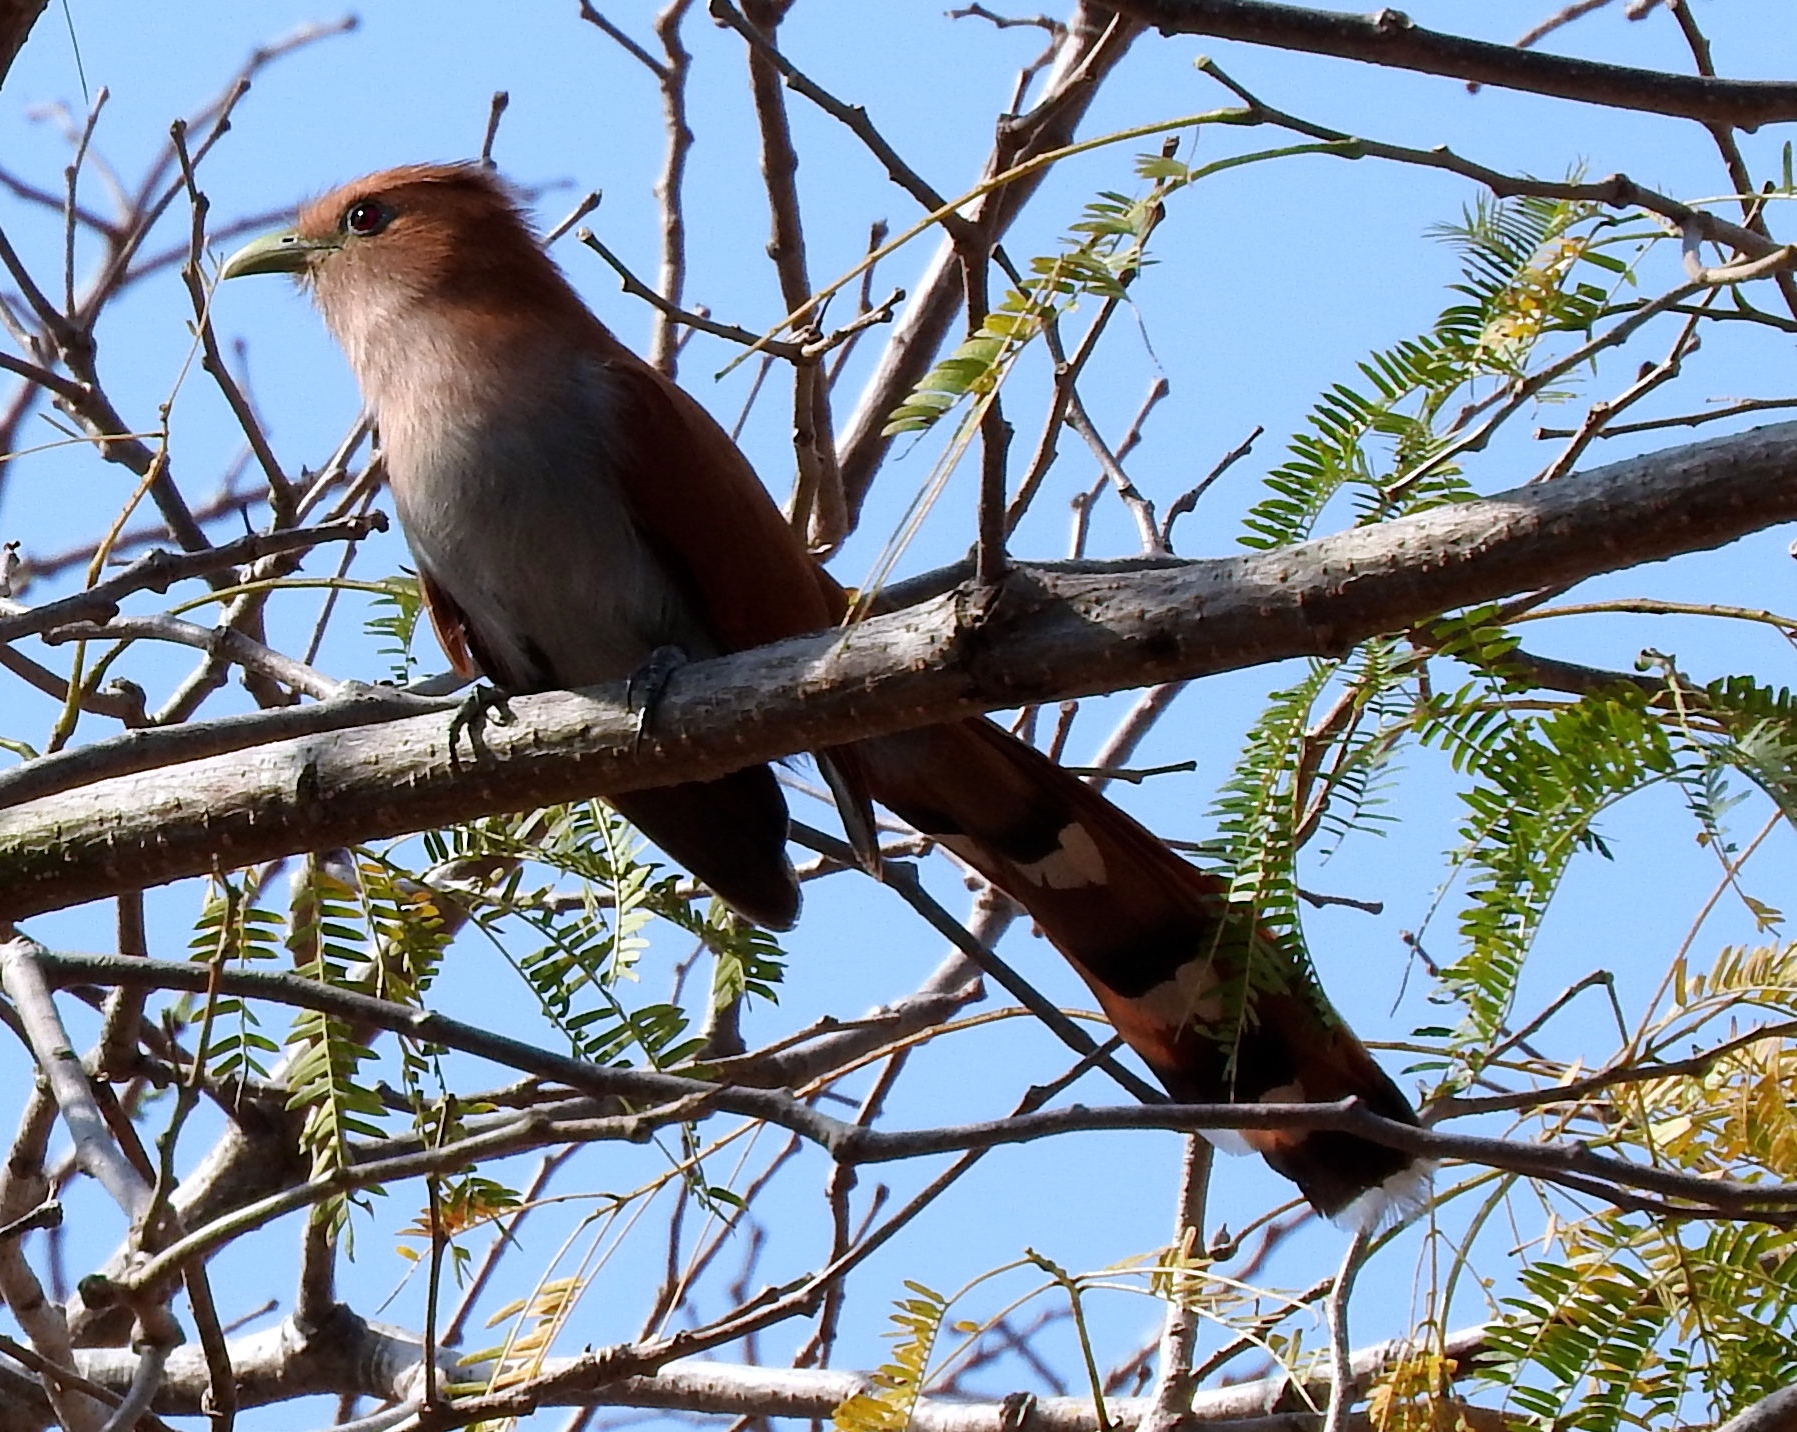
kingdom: Animalia
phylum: Chordata
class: Aves
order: Cuculiformes
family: Cuculidae
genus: Piaya
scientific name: Piaya cayana
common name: Squirrel cuckoo
